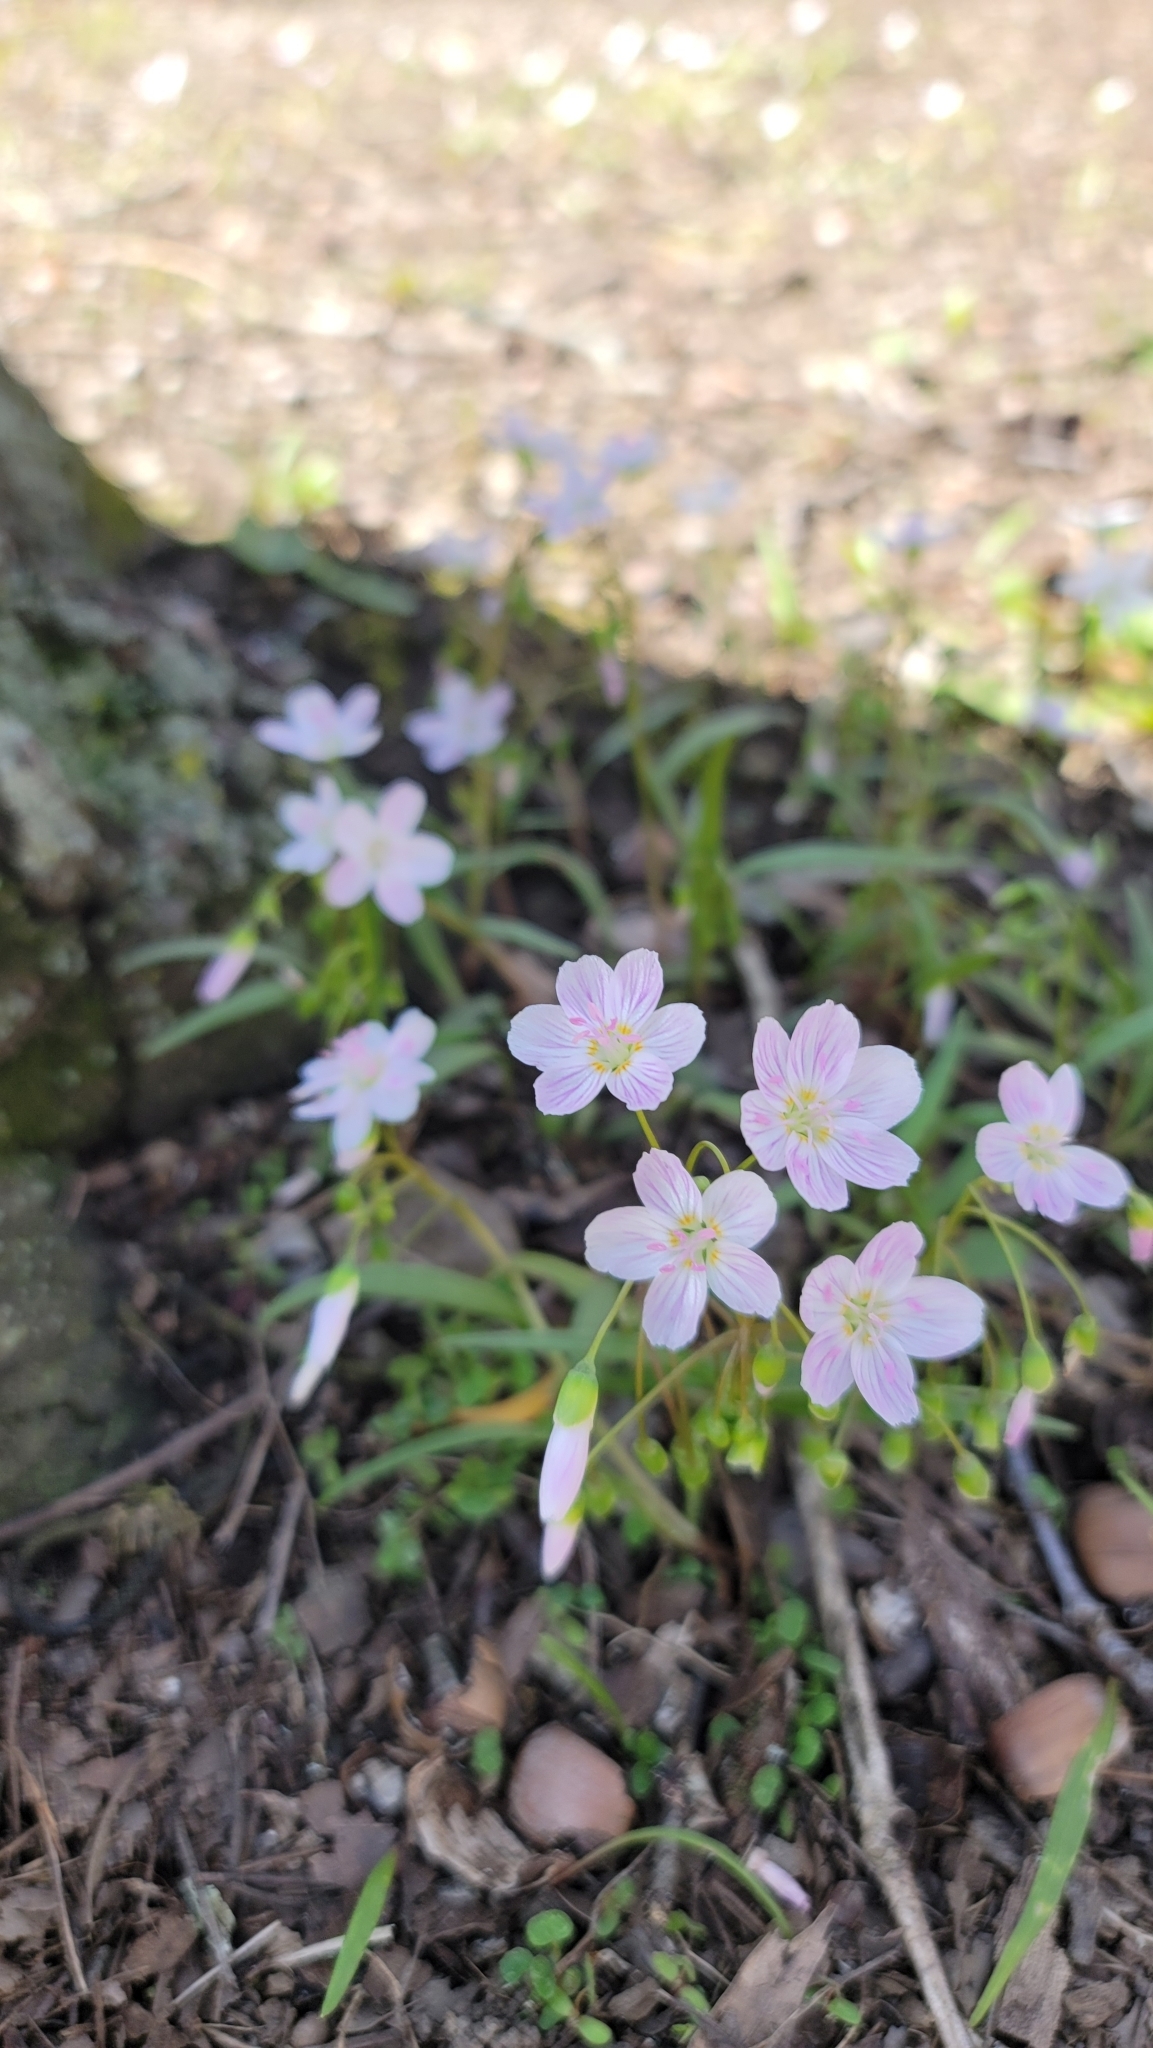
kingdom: Plantae
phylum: Tracheophyta
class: Magnoliopsida
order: Caryophyllales
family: Montiaceae
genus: Claytonia
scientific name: Claytonia virginica
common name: Virginia springbeauty
